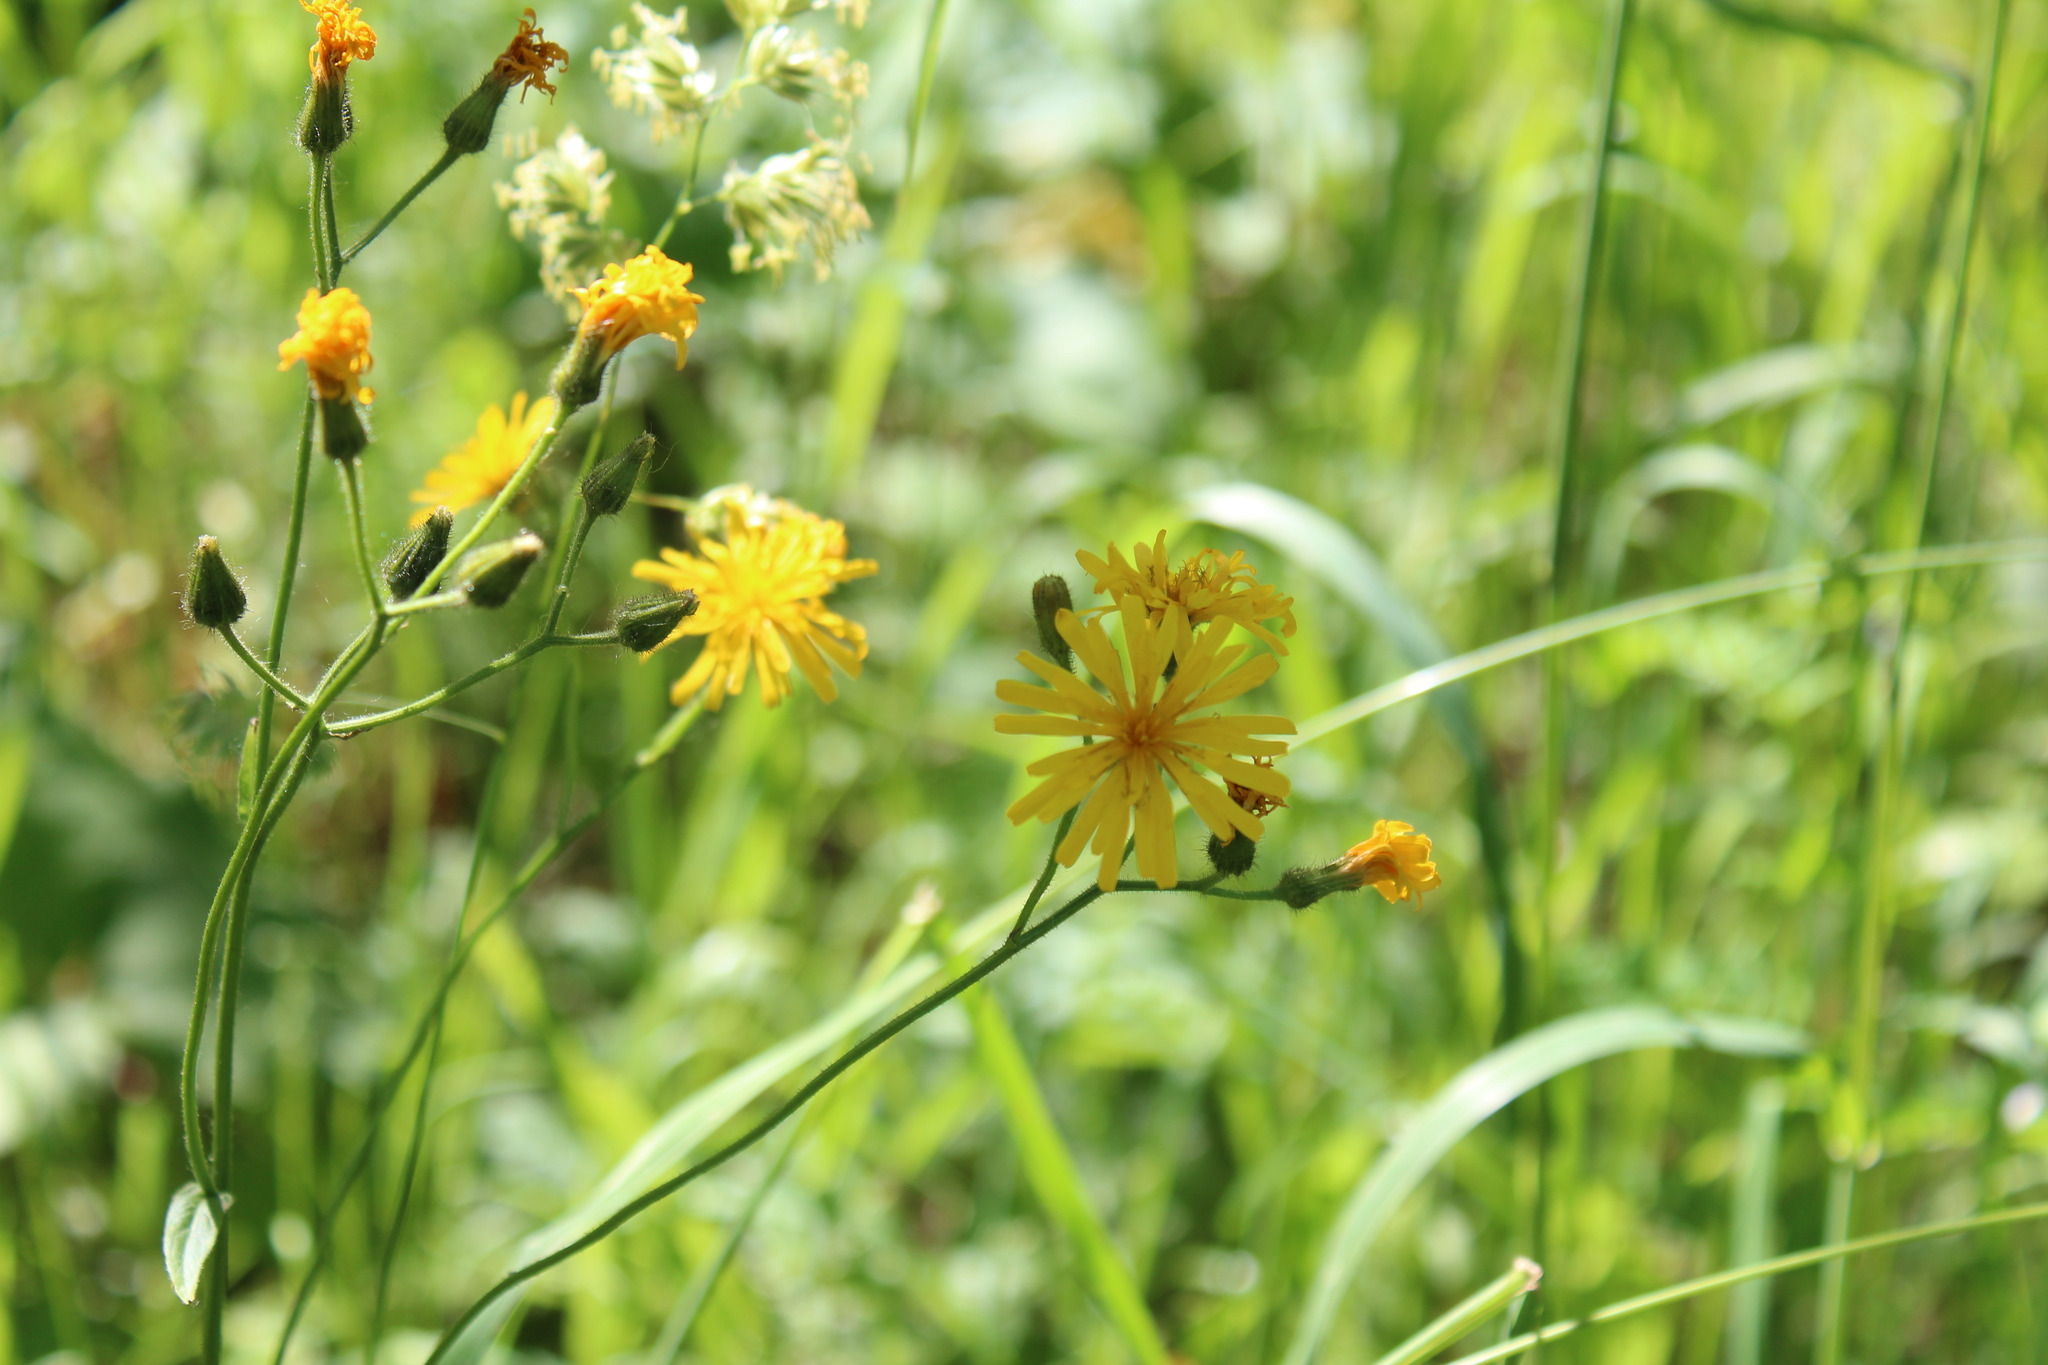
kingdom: Plantae
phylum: Tracheophyta
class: Magnoliopsida
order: Asterales
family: Asteraceae
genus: Crepis
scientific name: Crepis lyrata
